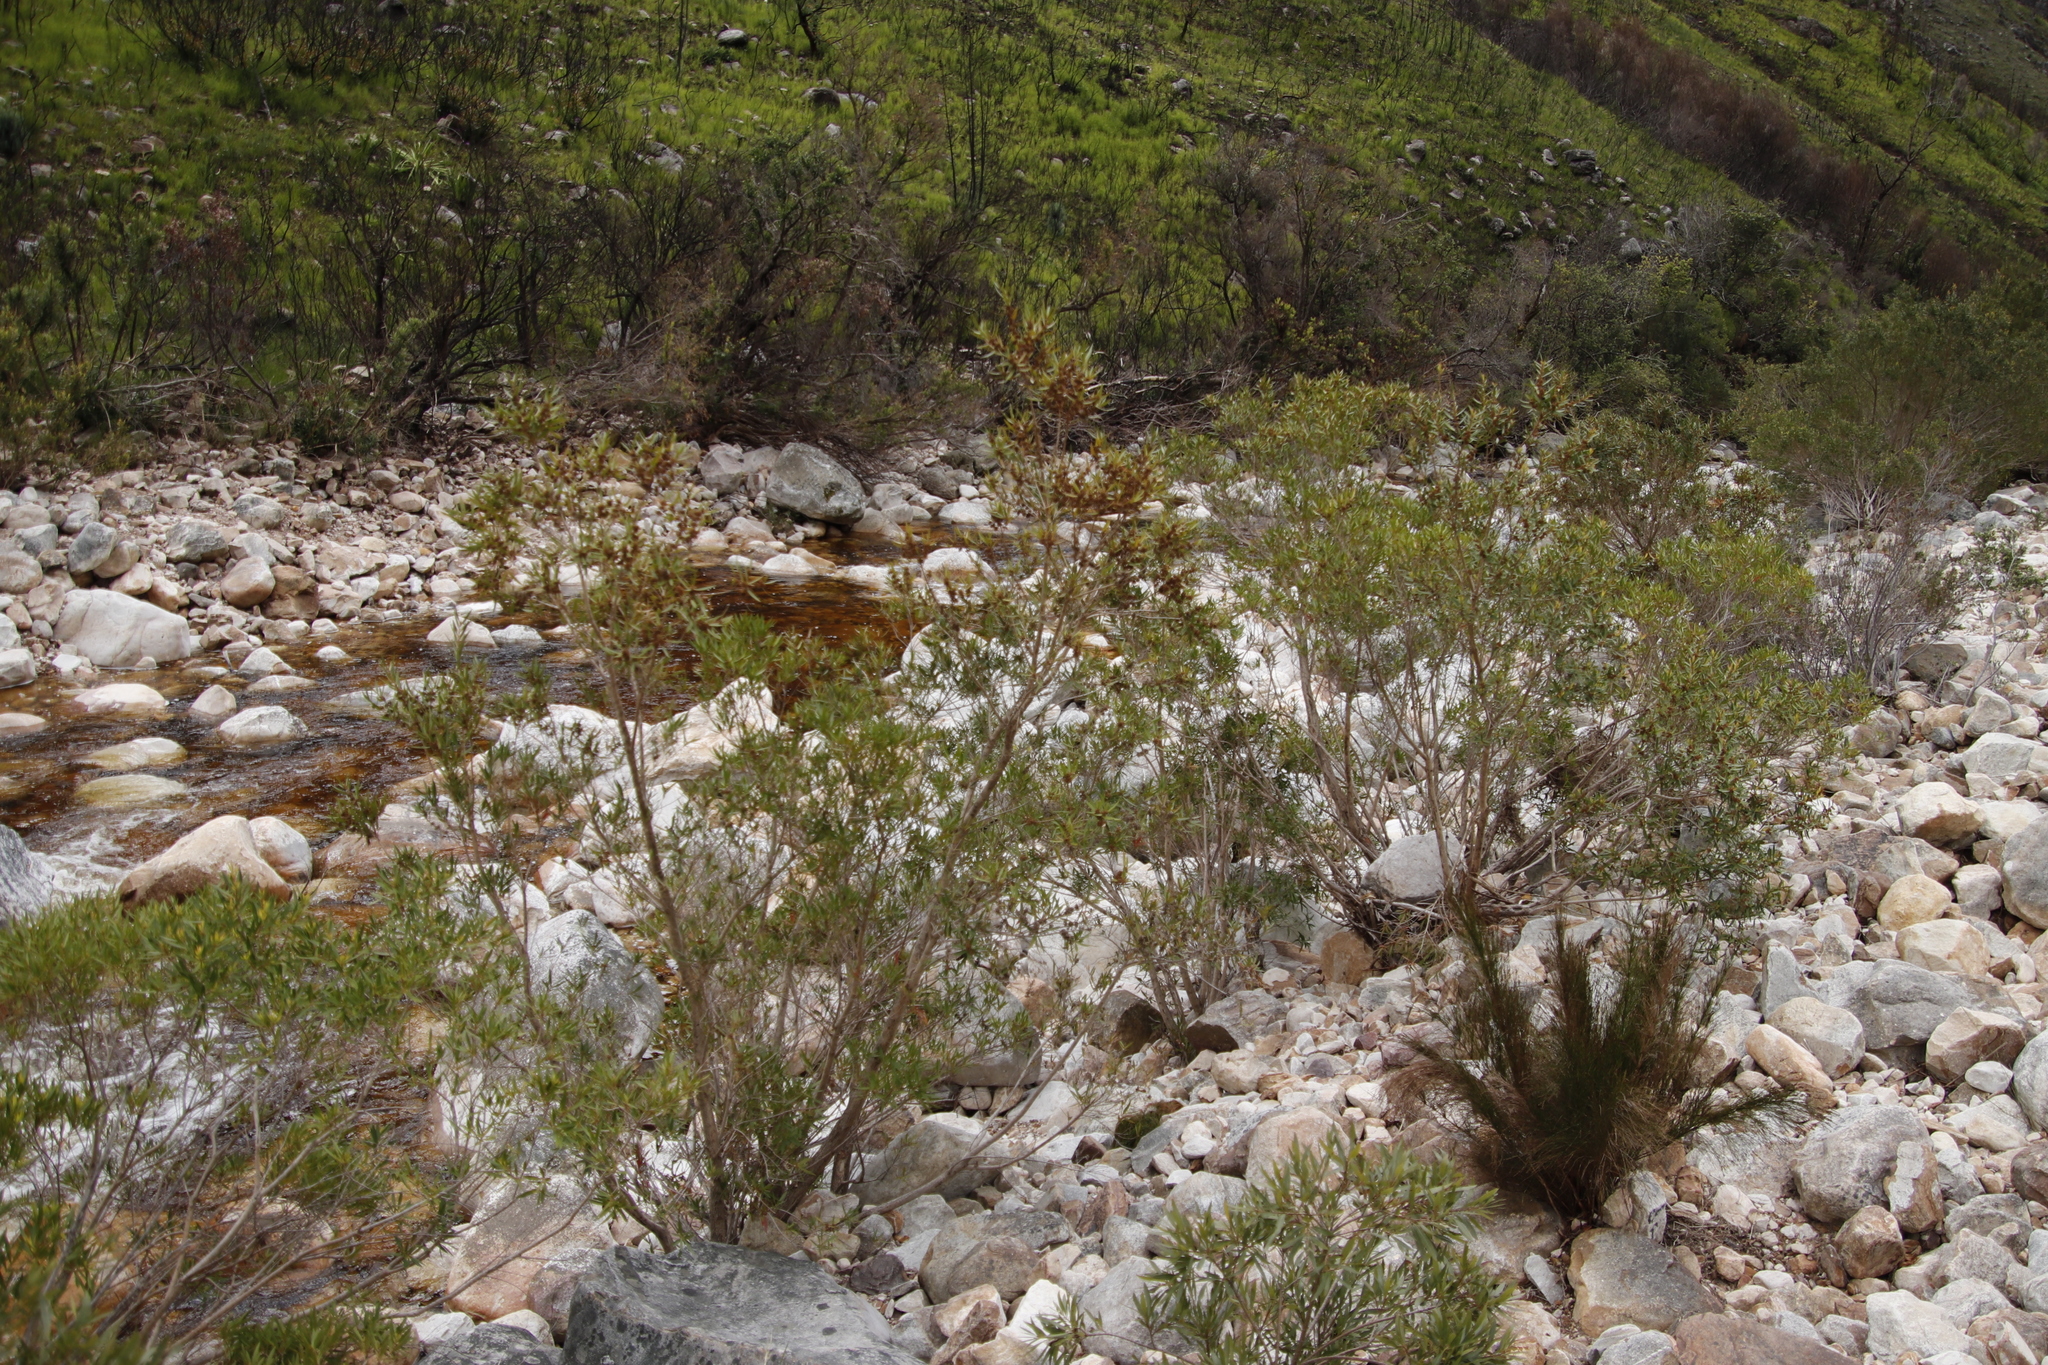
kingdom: Plantae
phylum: Tracheophyta
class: Magnoliopsida
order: Myrtales
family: Myrtaceae
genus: Callistemon
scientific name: Callistemon lanceolatus
